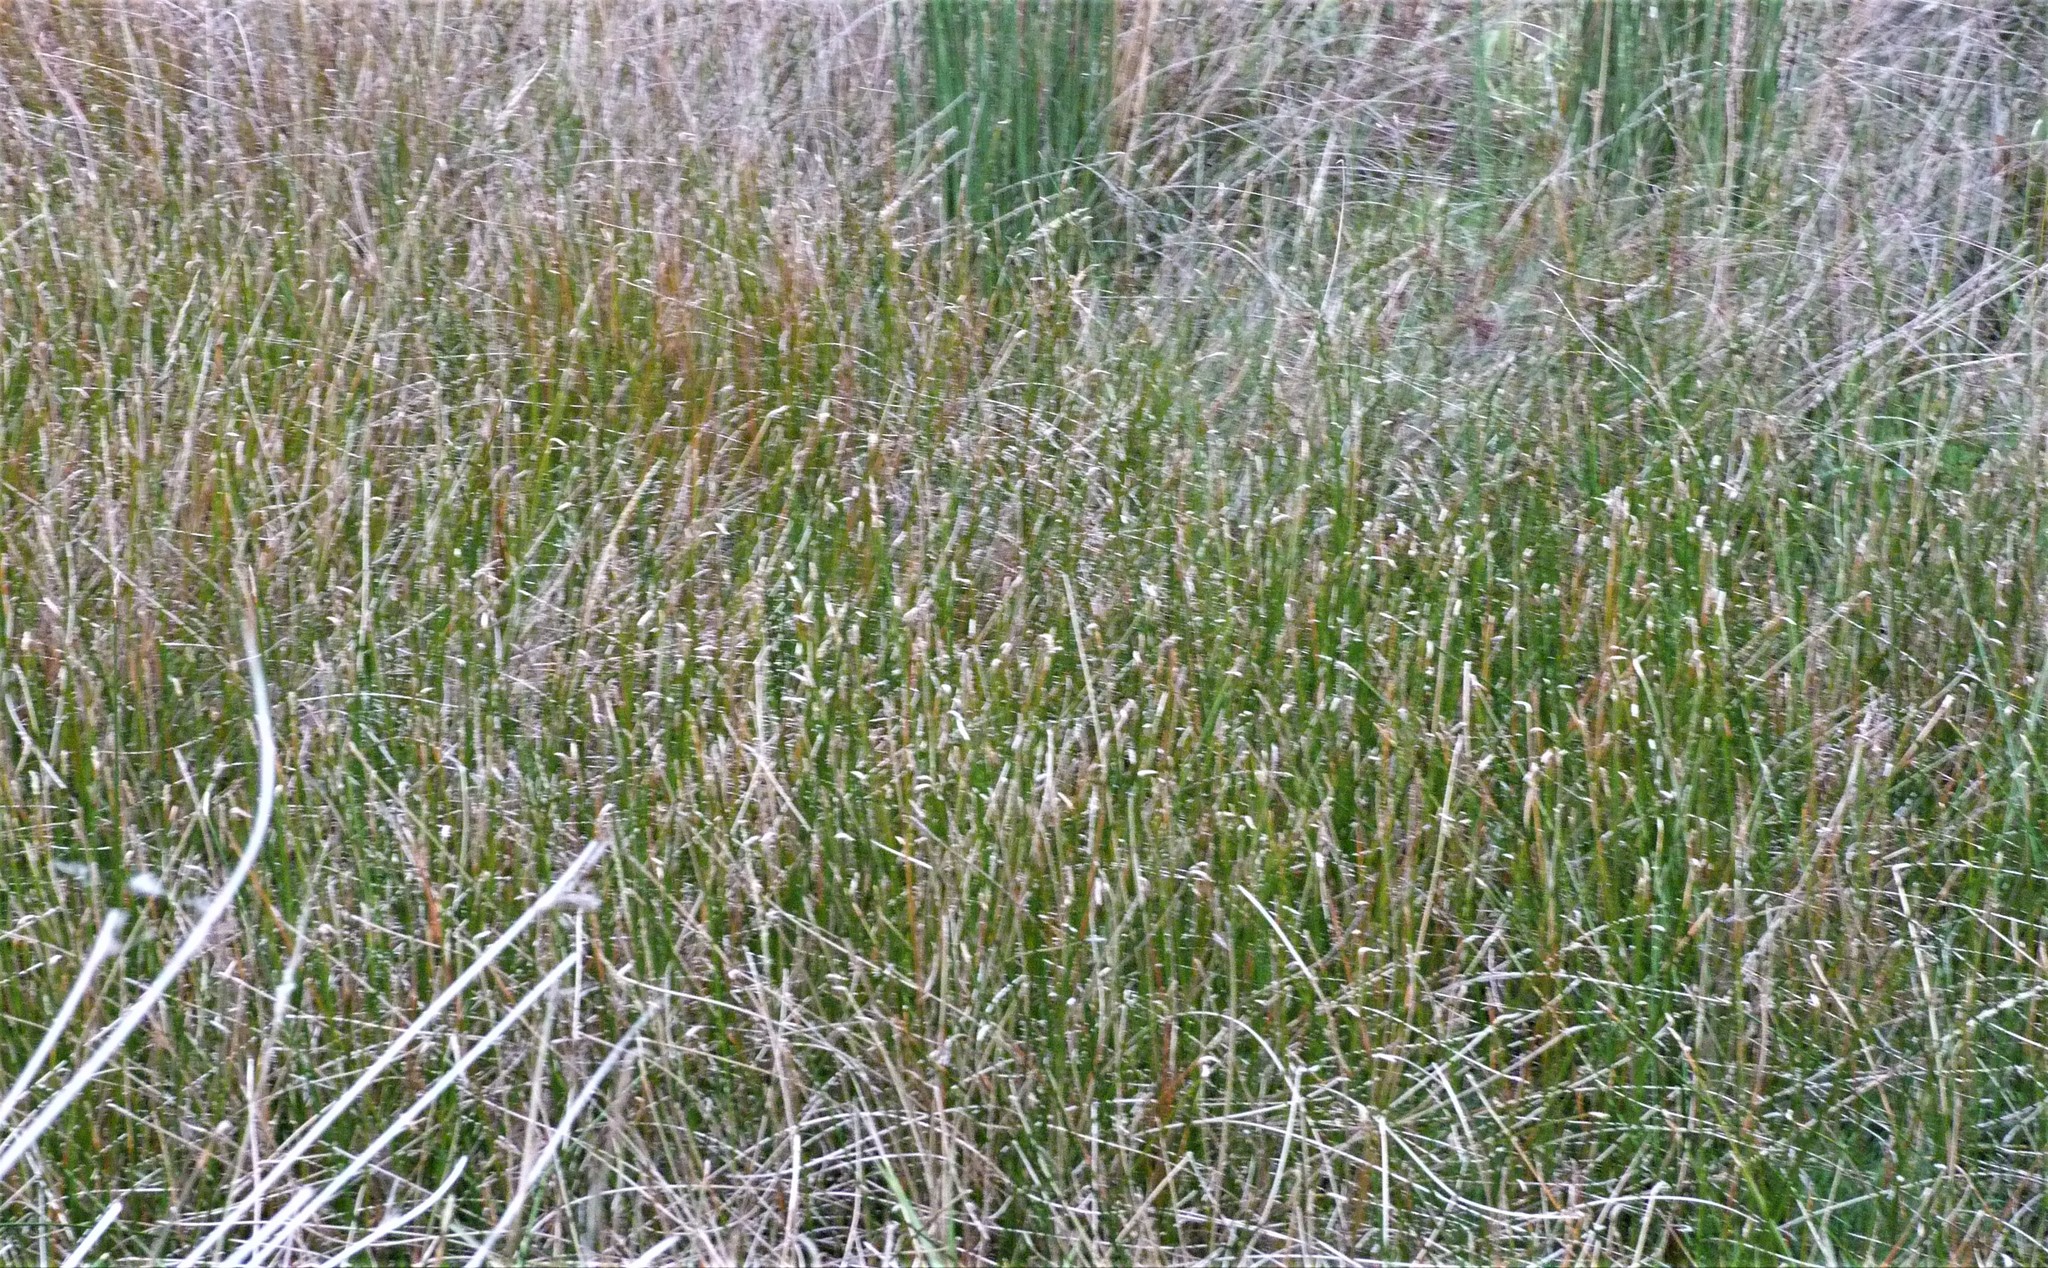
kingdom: Plantae
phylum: Tracheophyta
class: Liliopsida
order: Poales
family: Cyperaceae
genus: Eleocharis
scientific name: Eleocharis acuta
